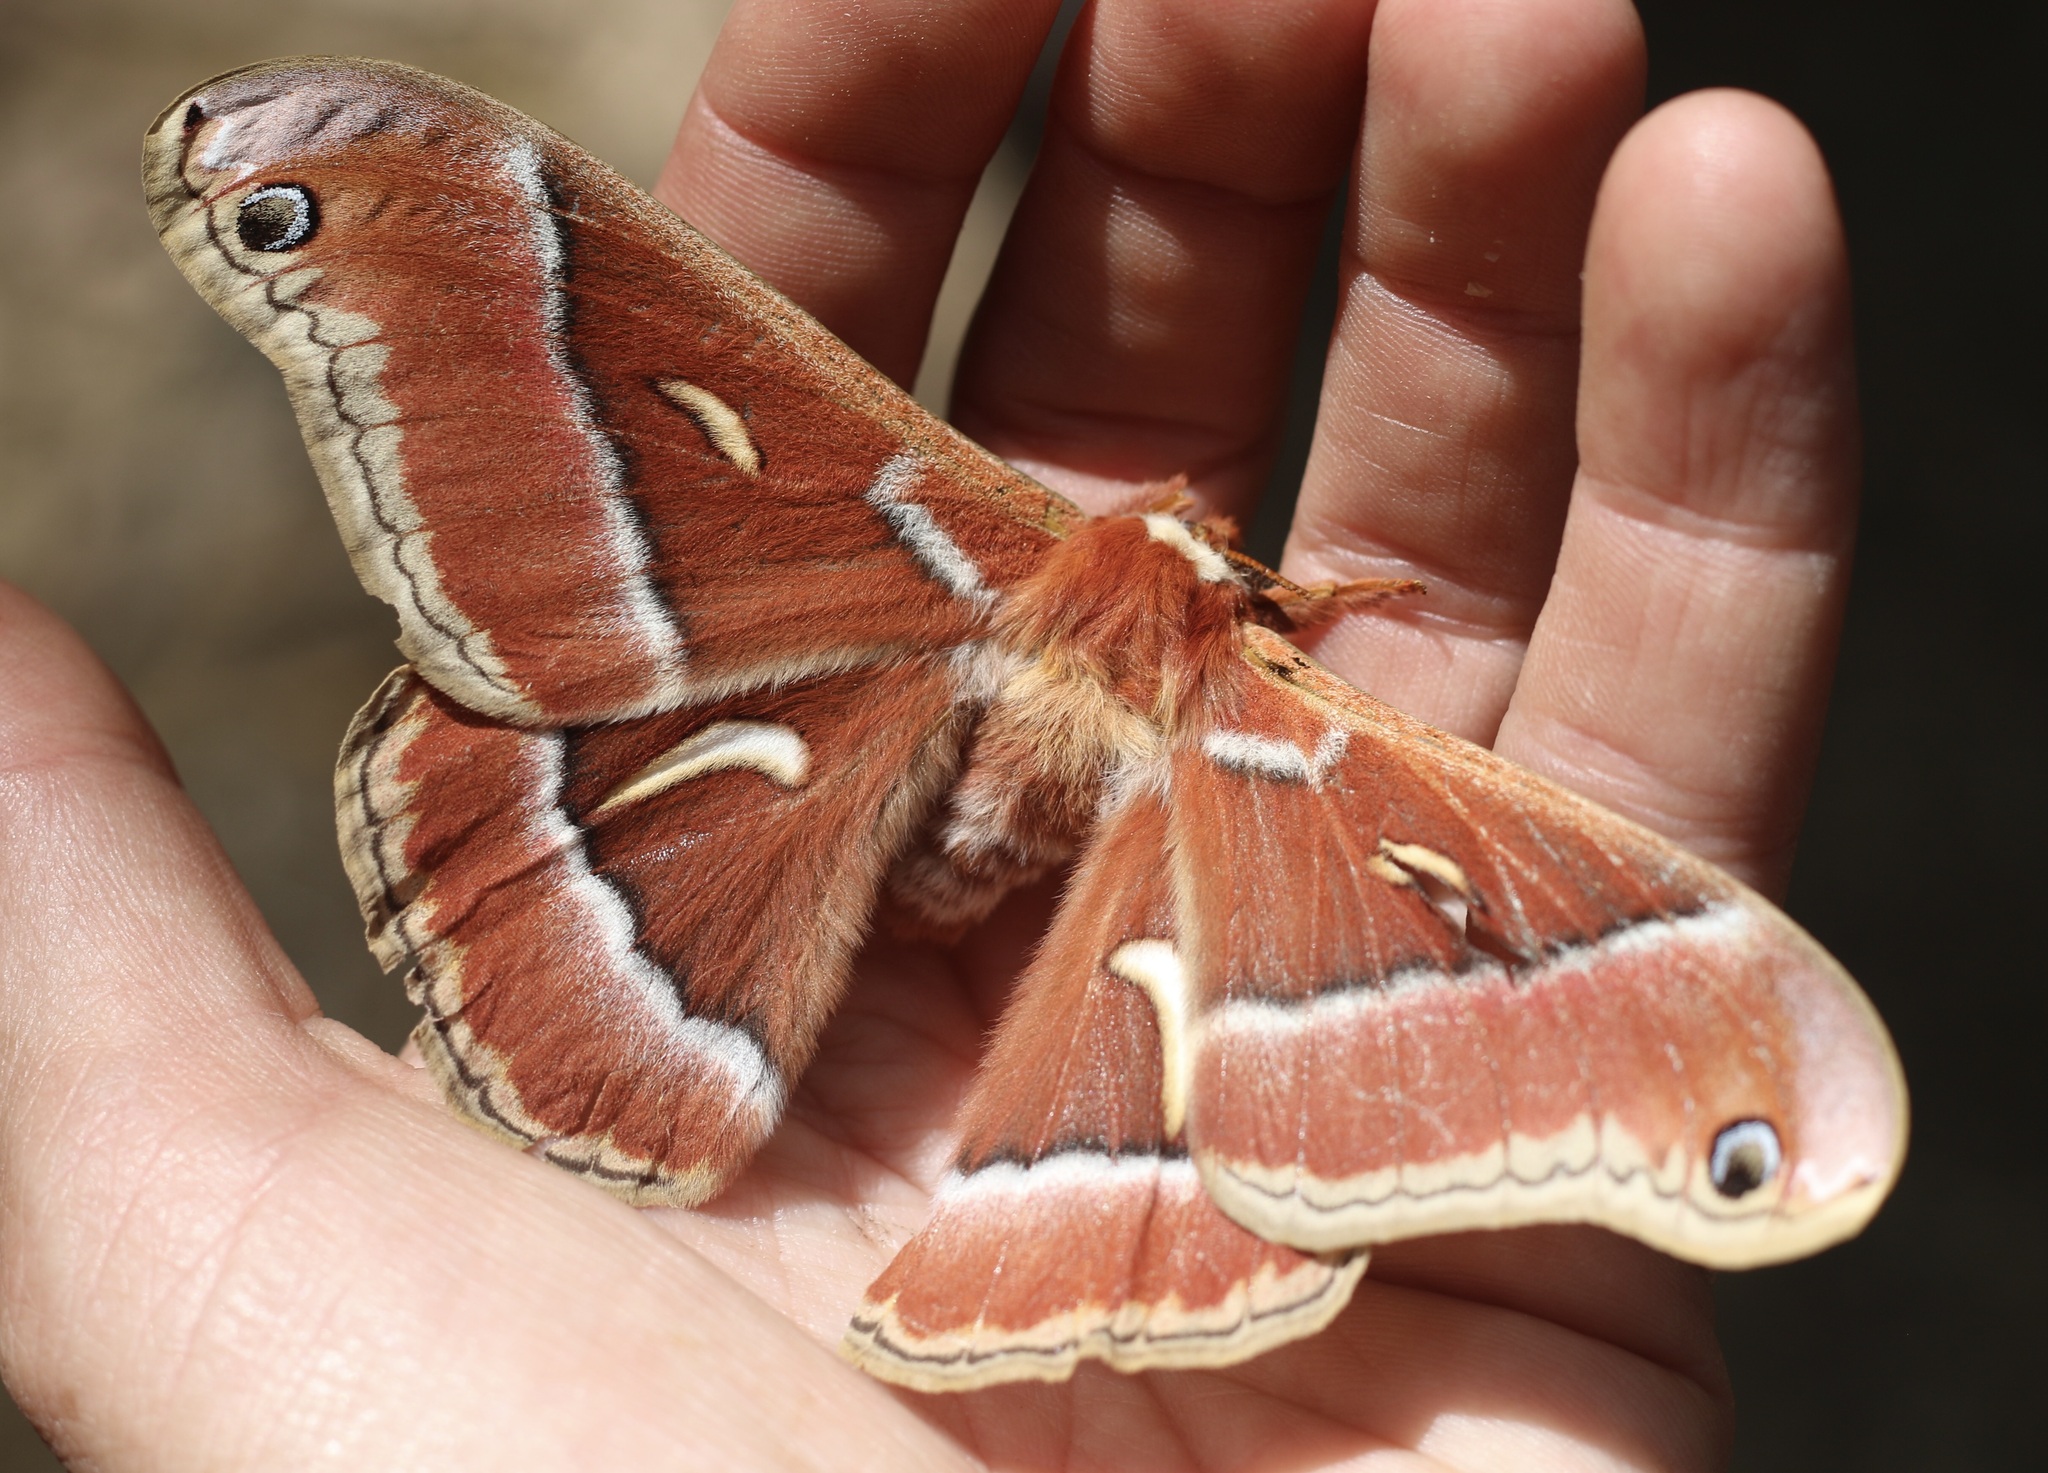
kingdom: Animalia
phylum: Arthropoda
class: Insecta
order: Lepidoptera
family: Saturniidae
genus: Hyalophora
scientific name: Hyalophora euryalus
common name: Ceanothus silkmoth
